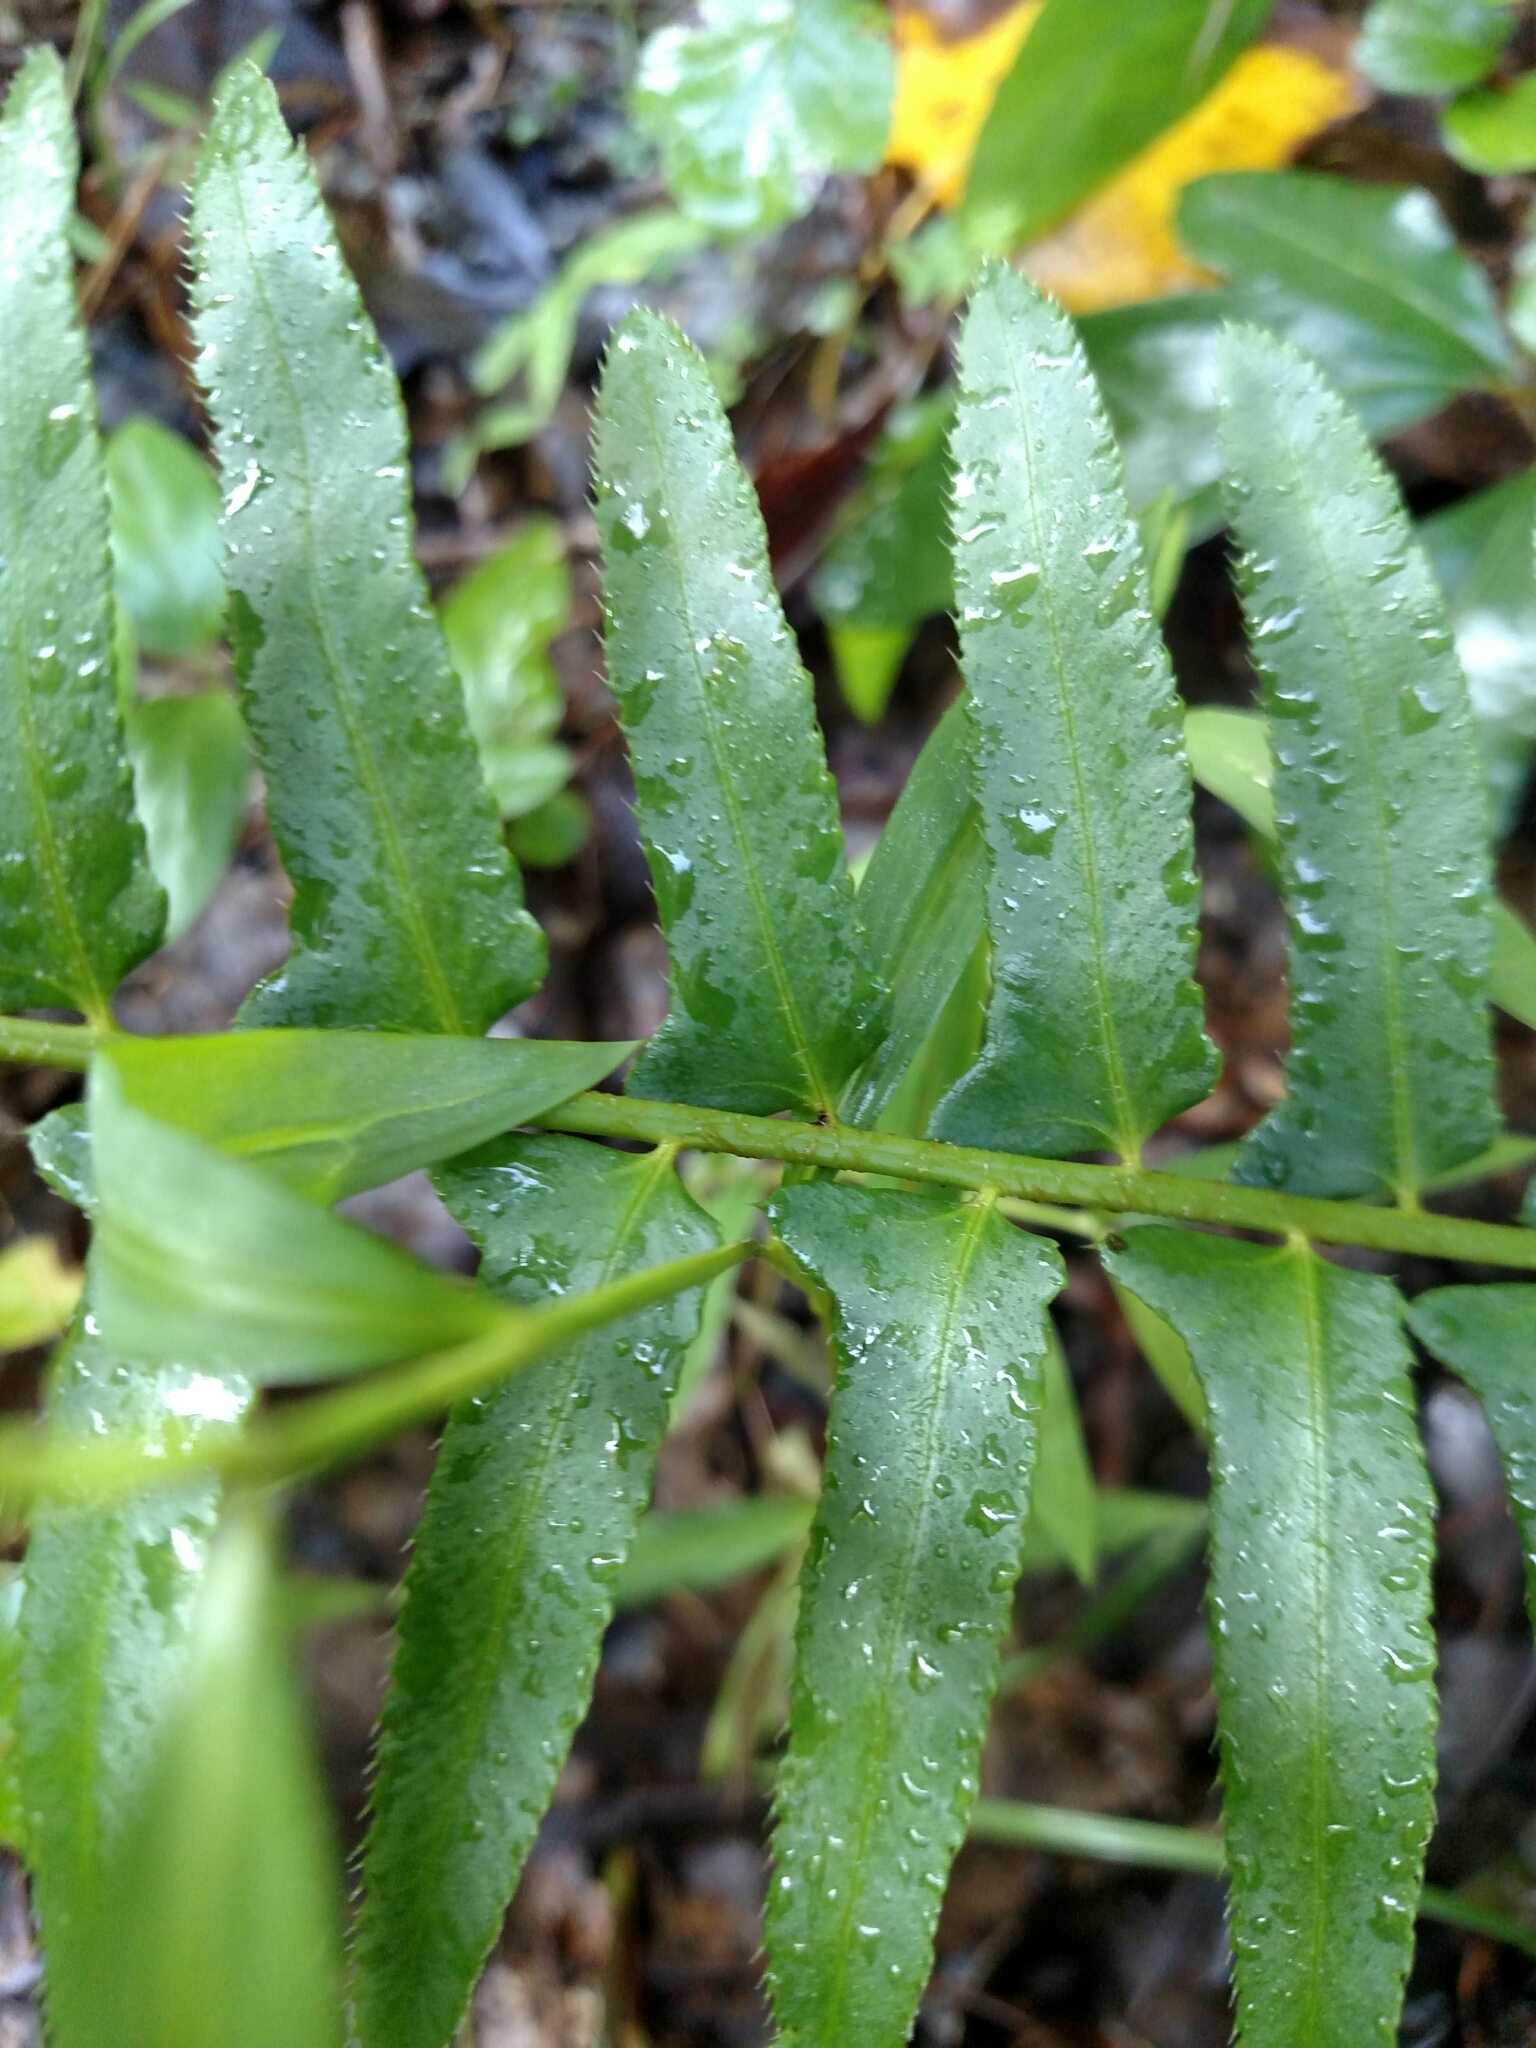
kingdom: Plantae
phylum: Tracheophyta
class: Polypodiopsida
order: Polypodiales
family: Dryopteridaceae
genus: Polystichum
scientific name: Polystichum acrostichoides
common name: Christmas fern
